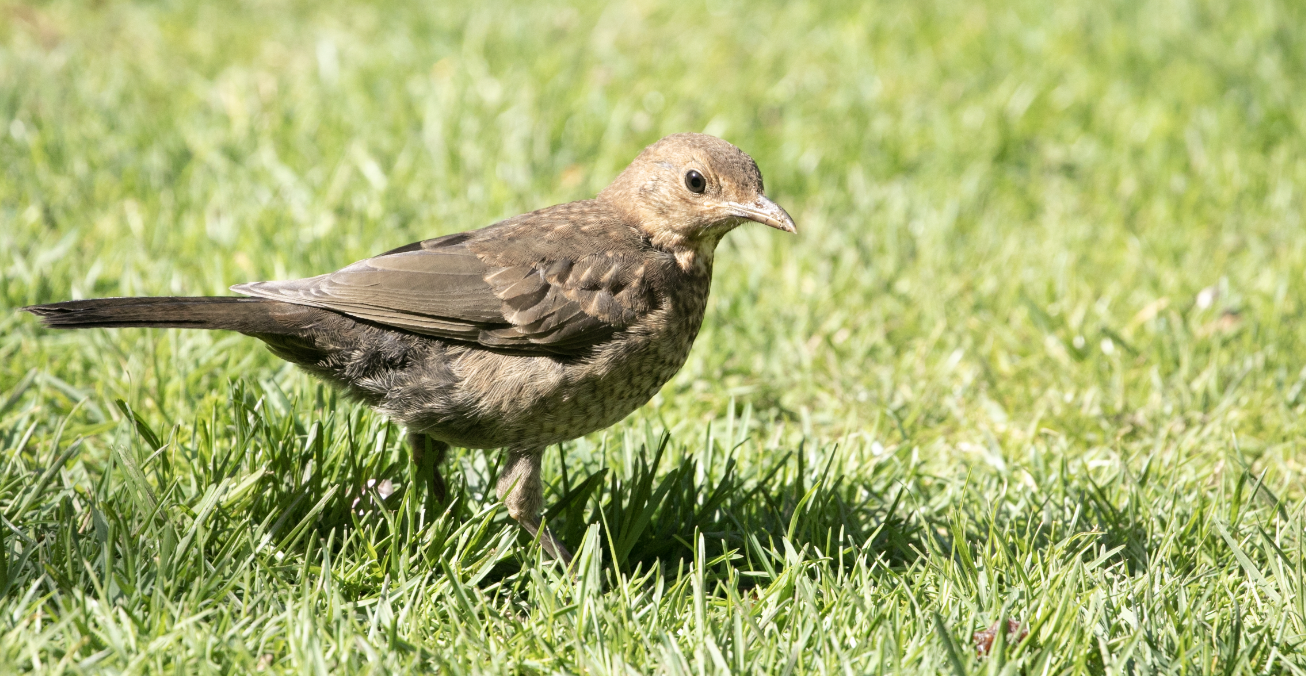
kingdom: Animalia
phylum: Chordata
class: Aves
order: Passeriformes
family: Turdidae
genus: Turdus
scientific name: Turdus merula
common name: Common blackbird
